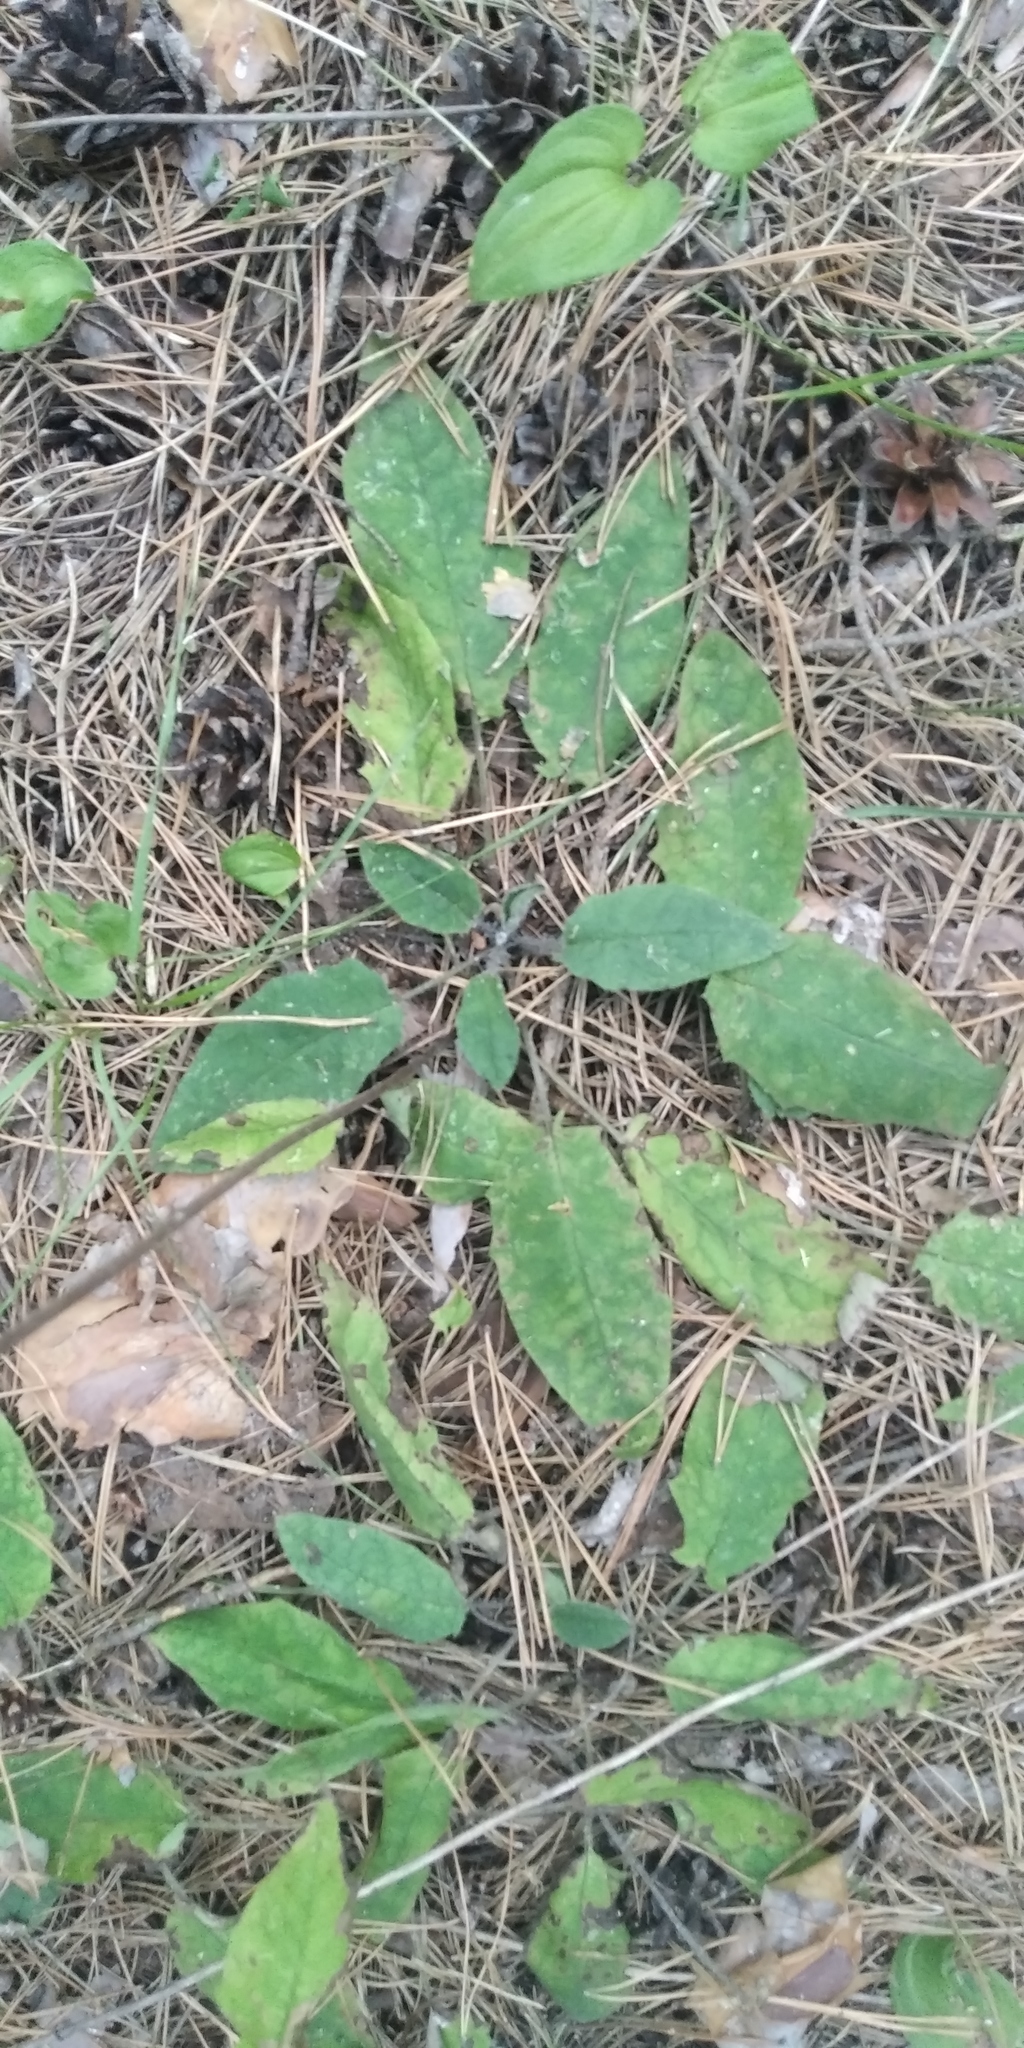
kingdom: Plantae
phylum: Tracheophyta
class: Magnoliopsida
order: Asterales
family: Asteraceae
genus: Hieracium
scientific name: Hieracium murorum
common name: Wall hawkweed
